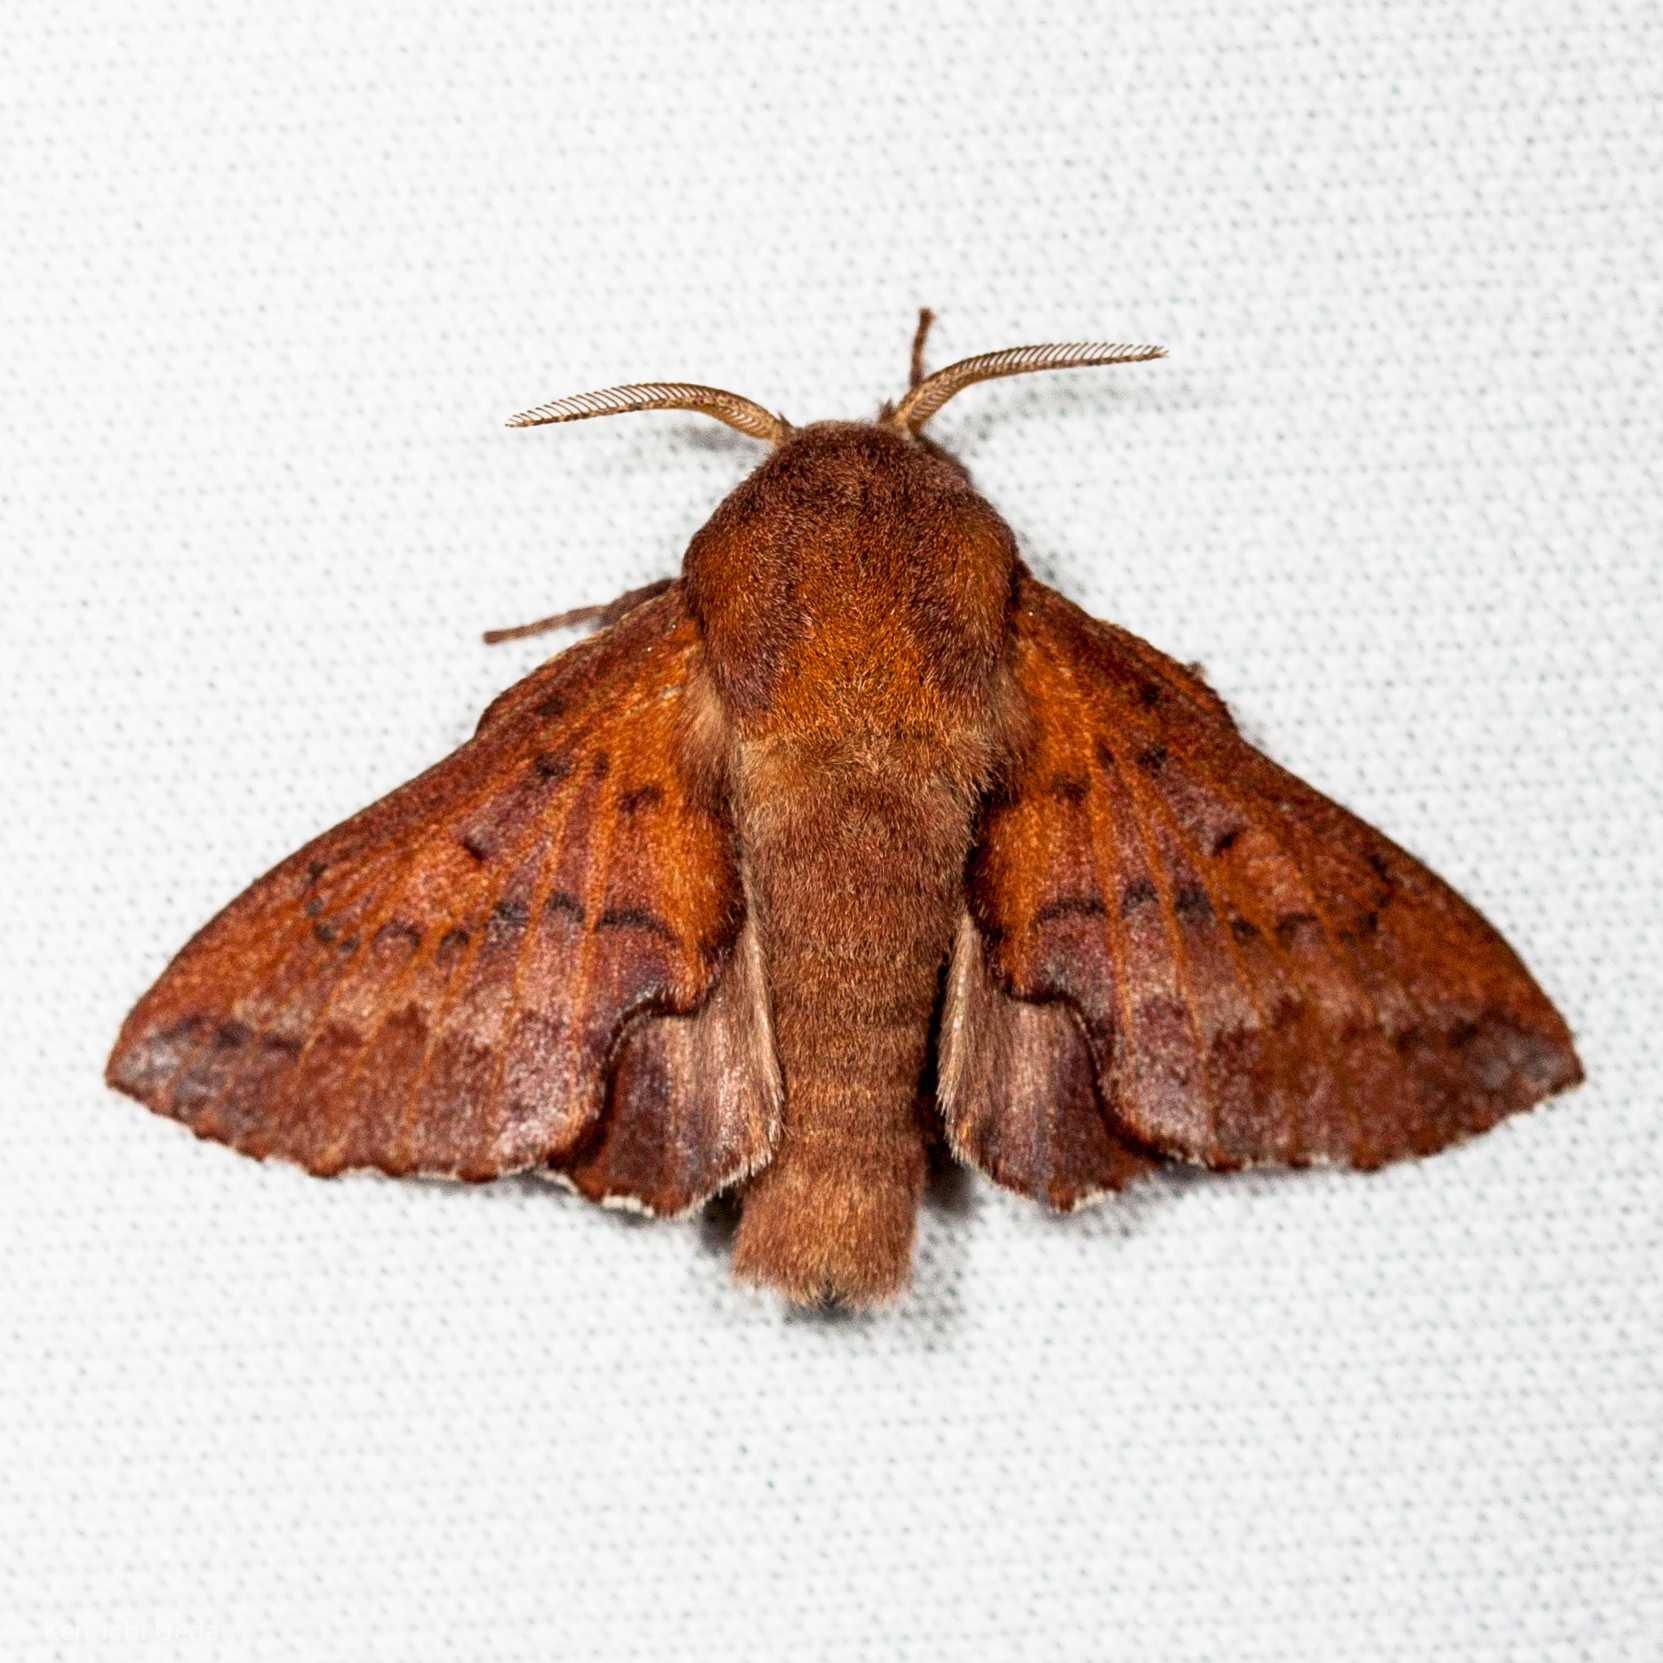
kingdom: Animalia
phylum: Arthropoda
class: Insecta
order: Lepidoptera
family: Lasiocampidae
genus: Phyllodesma
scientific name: Phyllodesma americana
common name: American lappet moth
